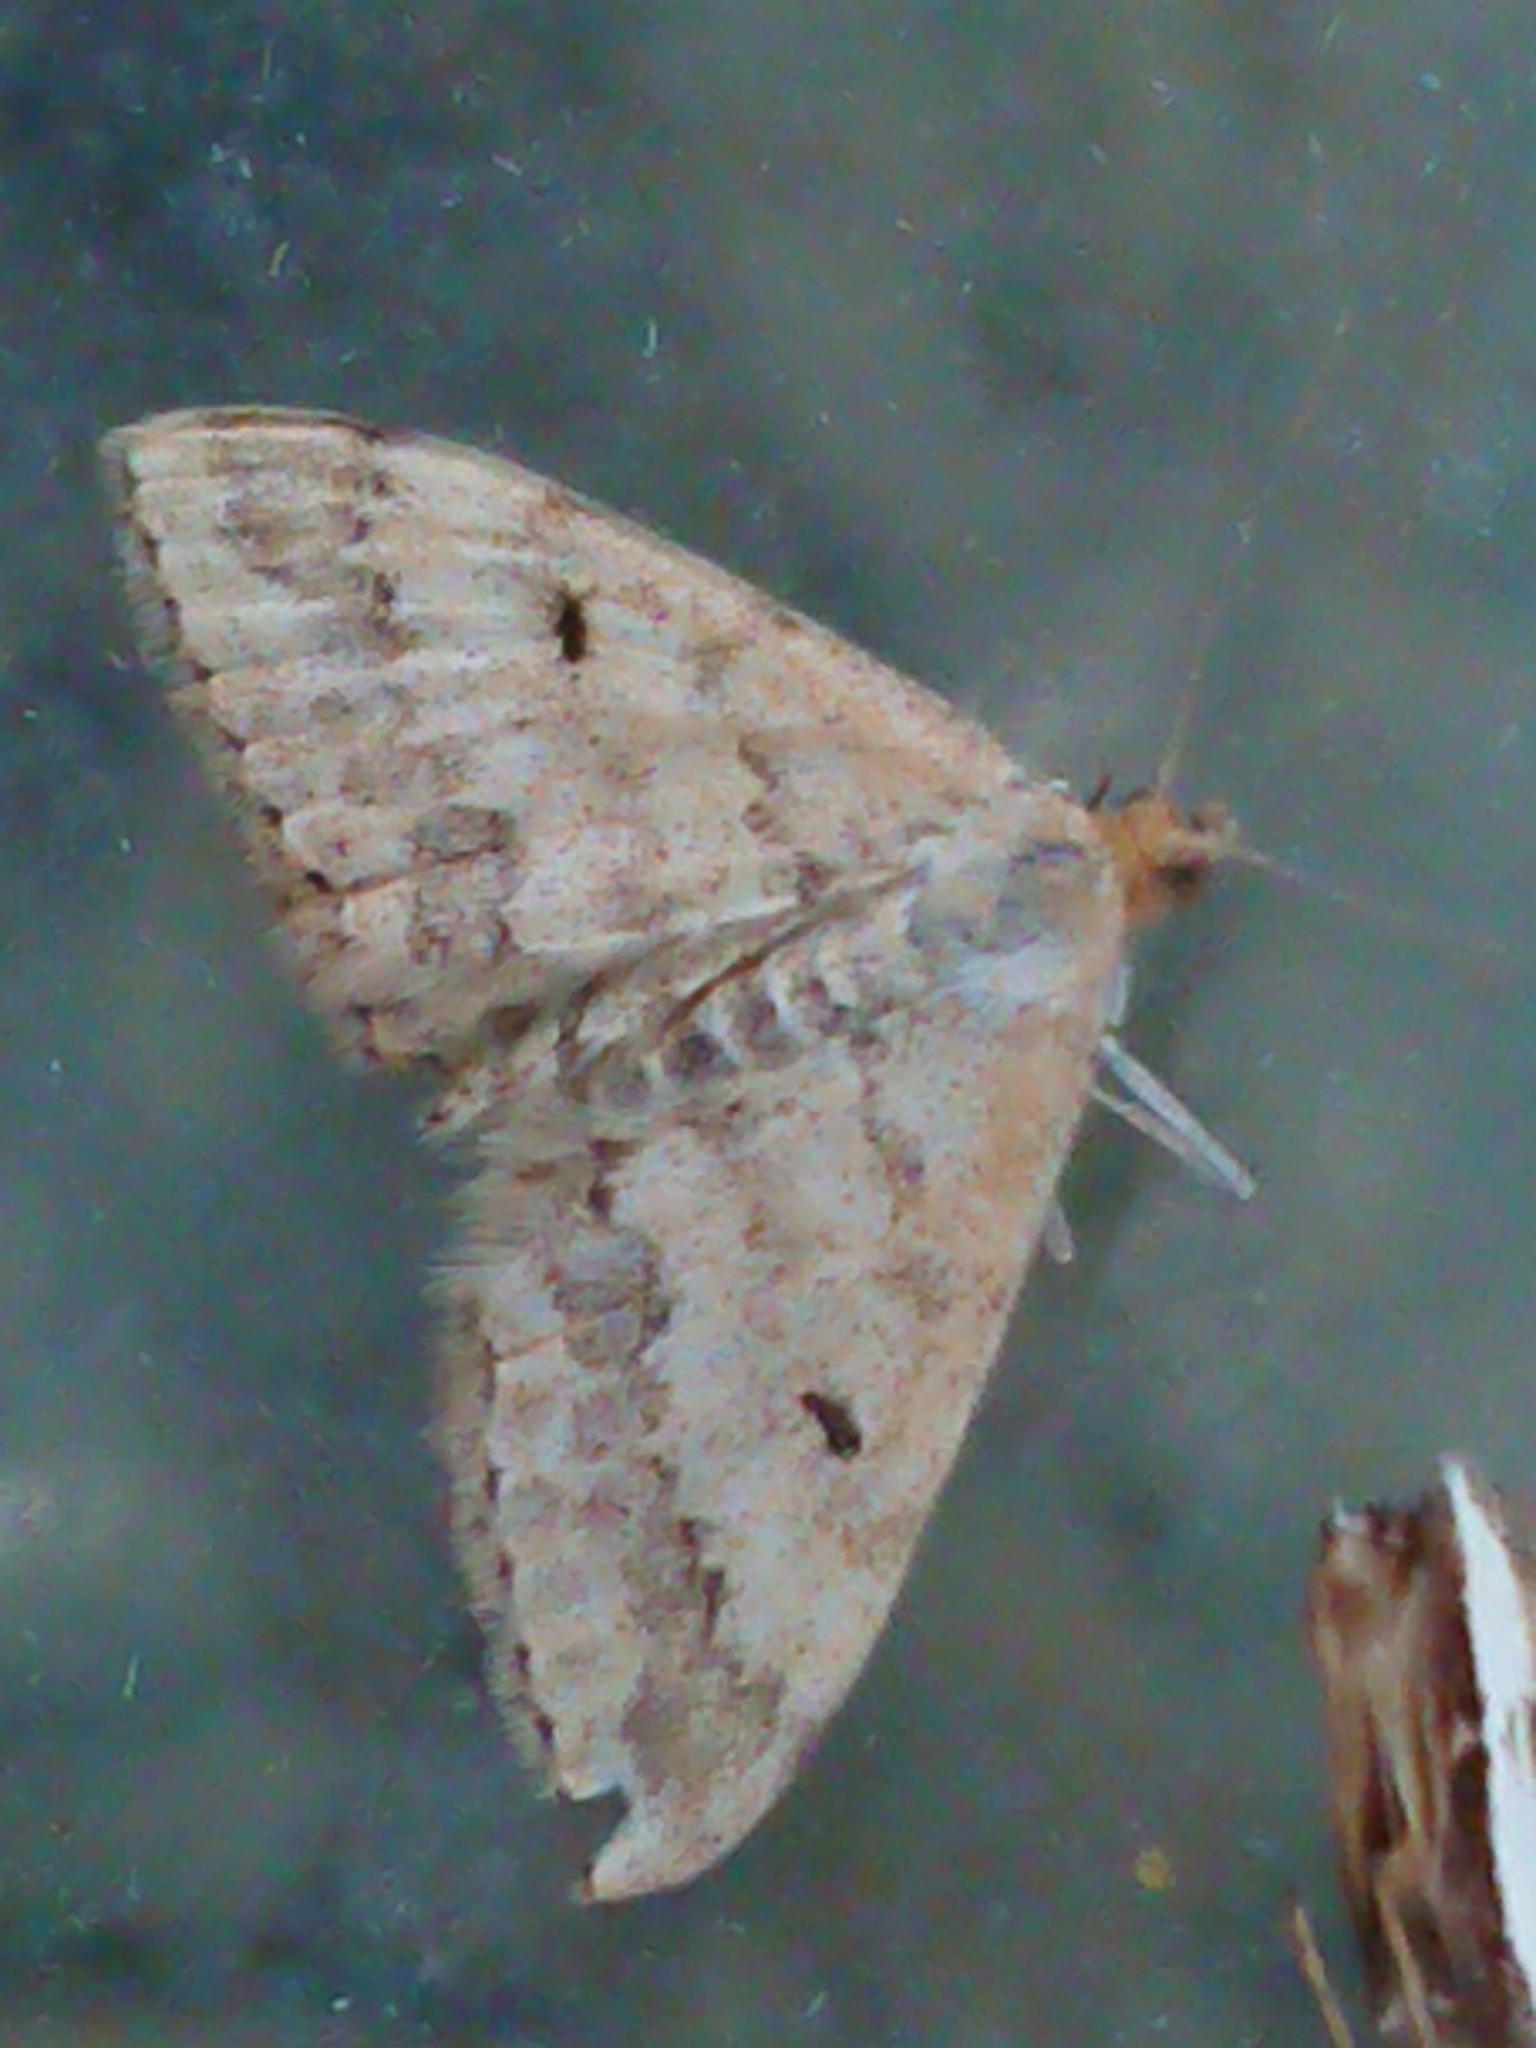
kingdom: Animalia
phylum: Arthropoda
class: Insecta
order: Lepidoptera
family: Geometridae
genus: Scopula
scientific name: Scopula rubraria
